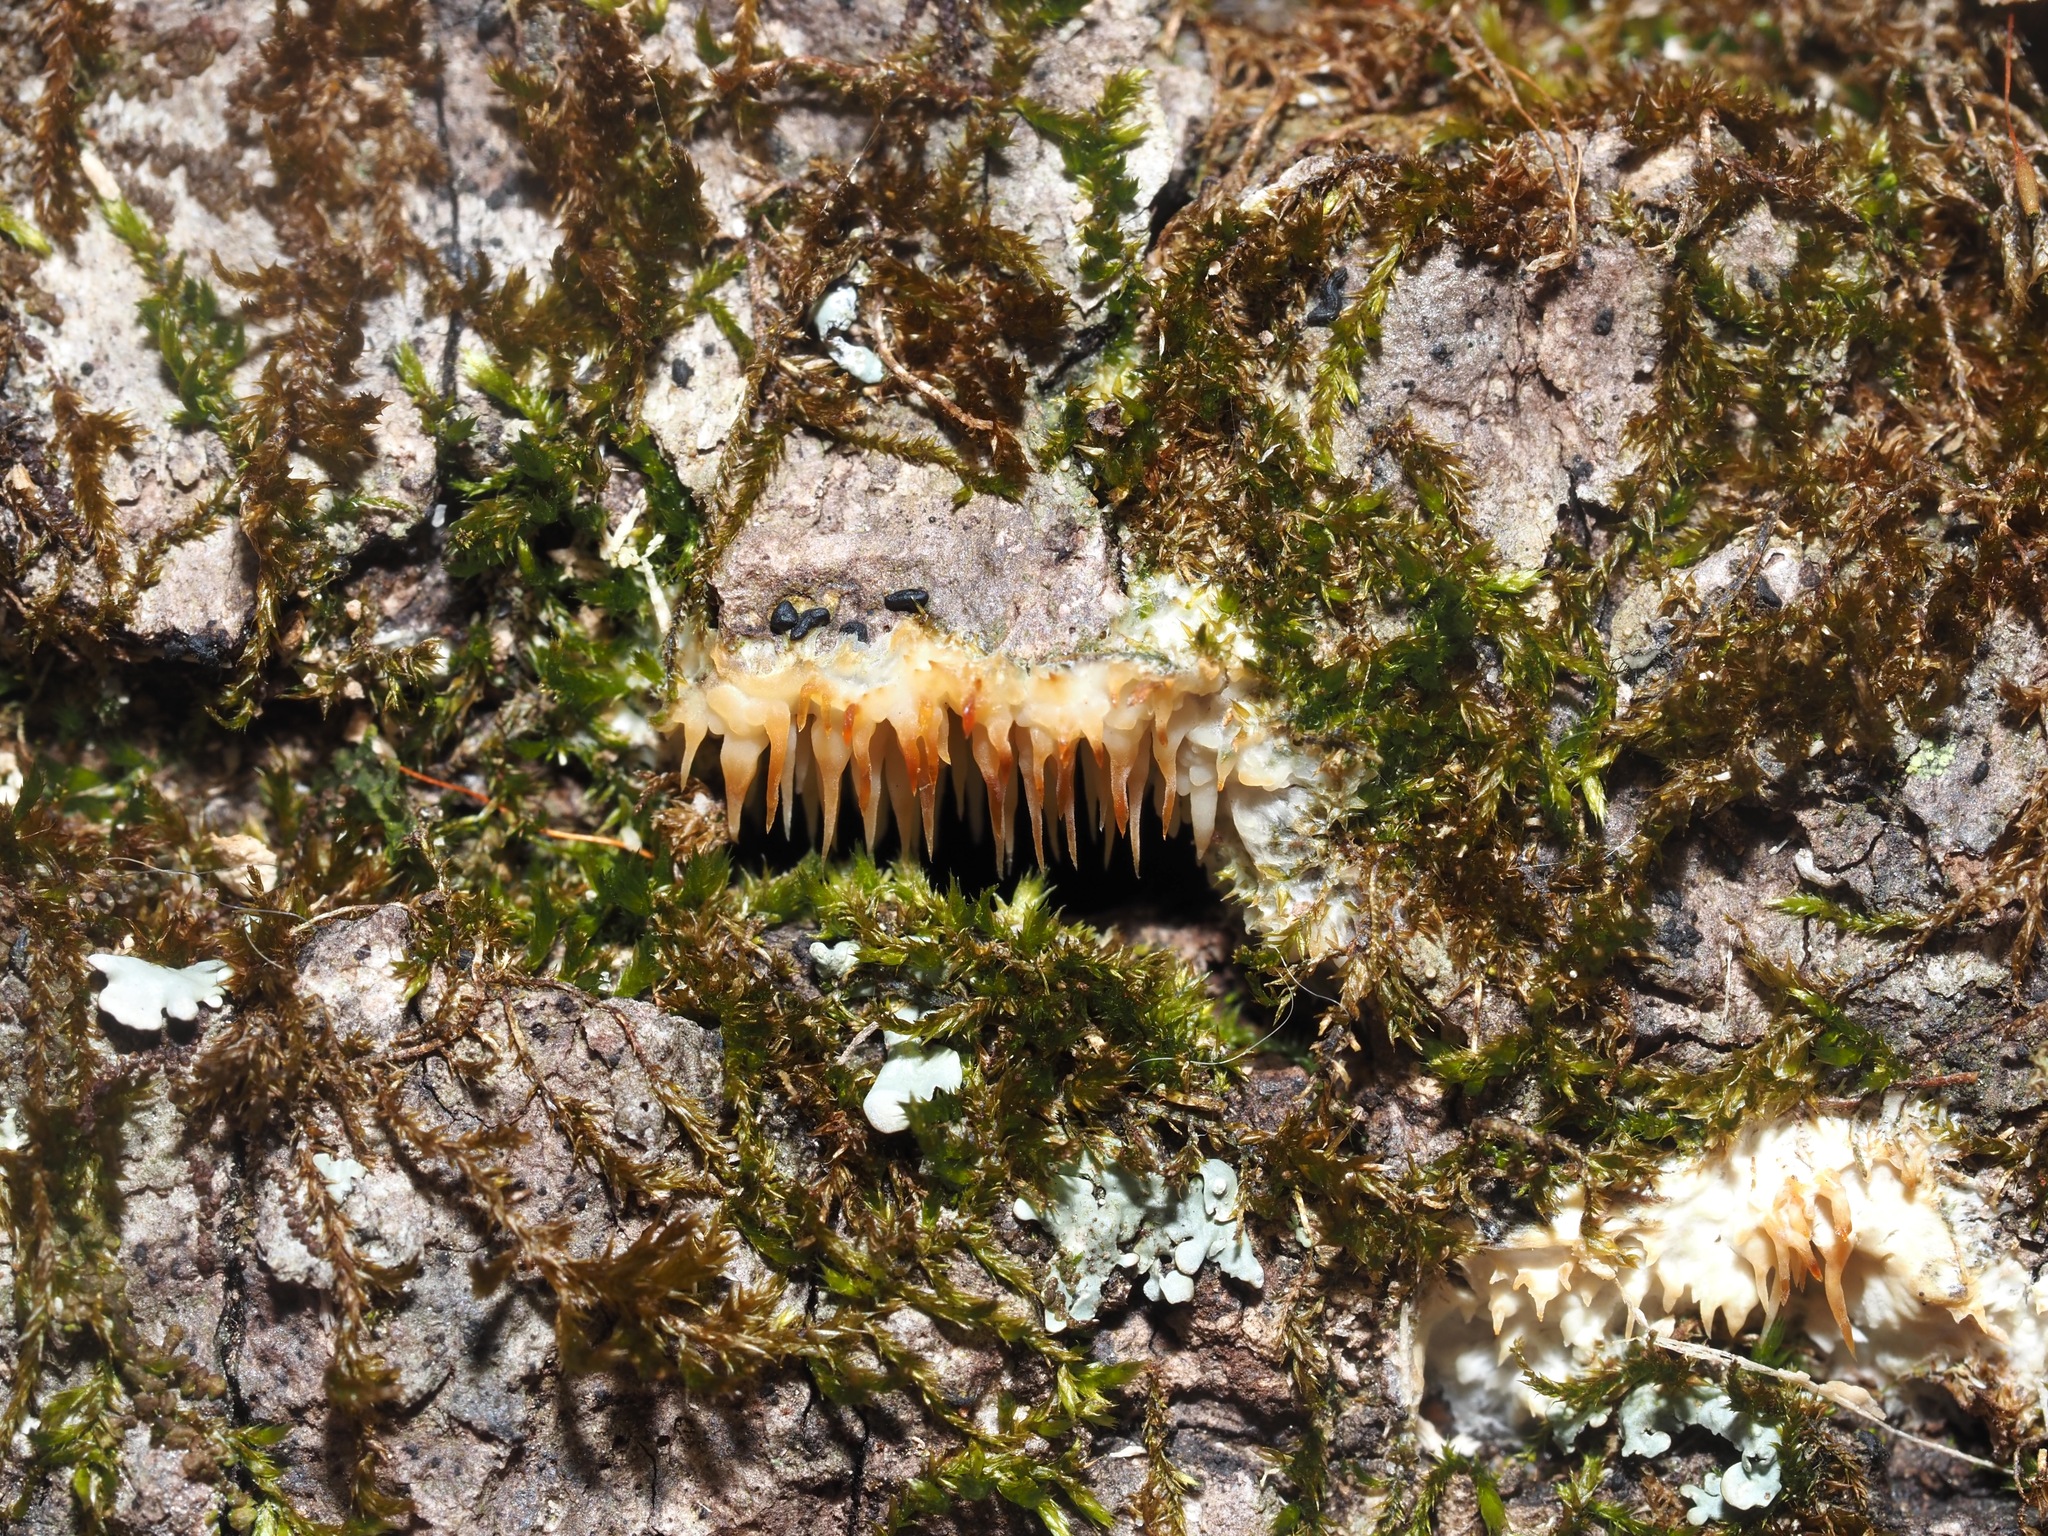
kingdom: Fungi
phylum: Basidiomycota
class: Agaricomycetes
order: Agaricales
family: Radulomycetaceae
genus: Radulomyces
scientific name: Radulomyces copelandii
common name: Asian beauty
